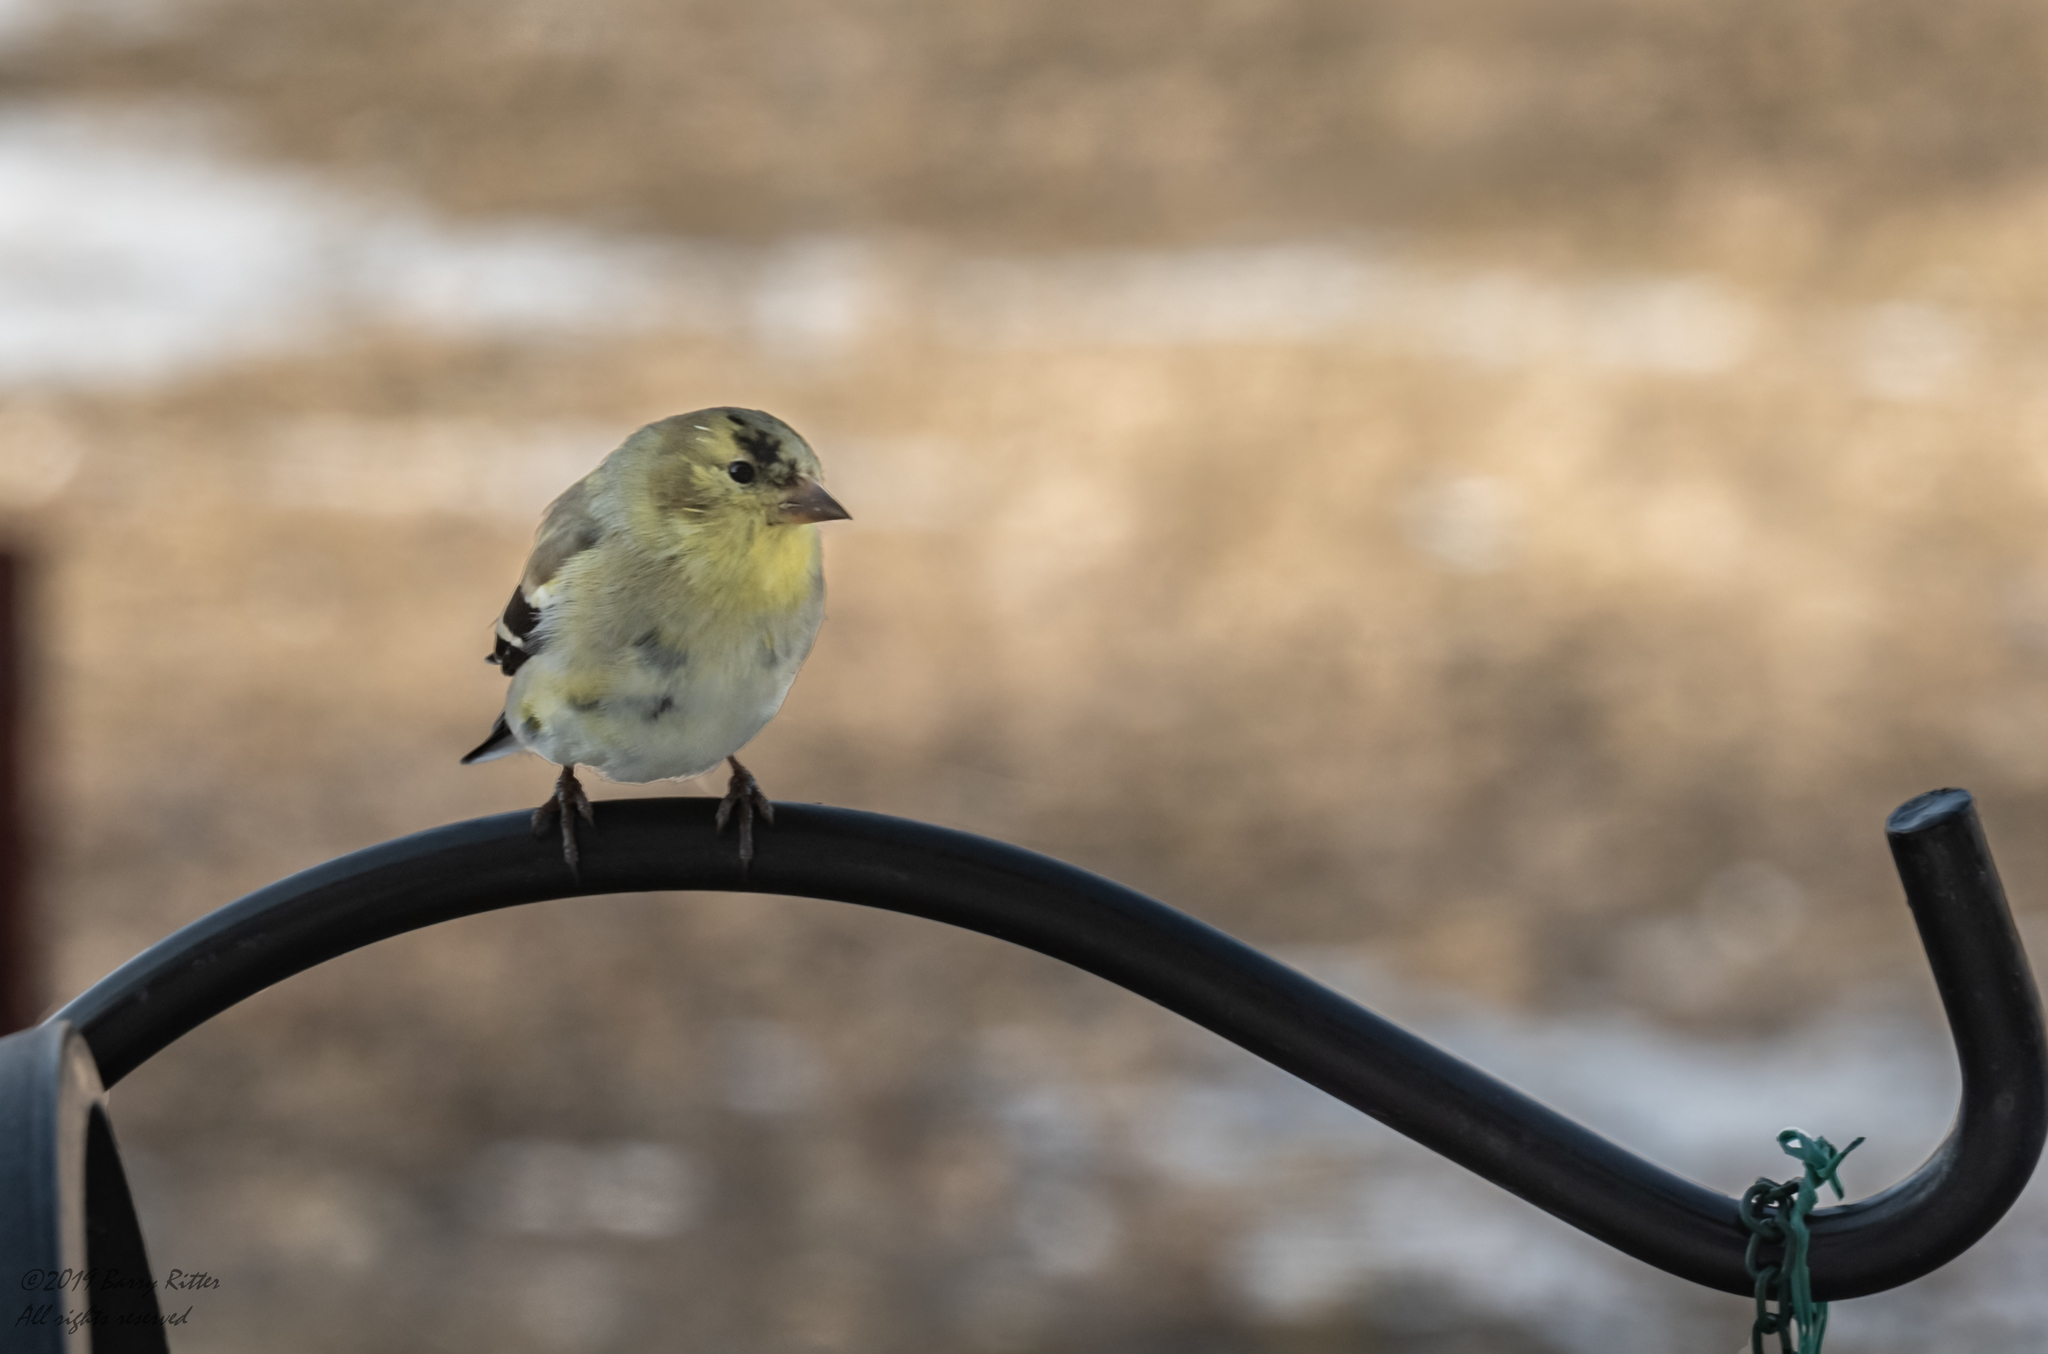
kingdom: Animalia
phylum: Chordata
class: Aves
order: Passeriformes
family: Fringillidae
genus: Spinus
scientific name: Spinus tristis
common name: American goldfinch
